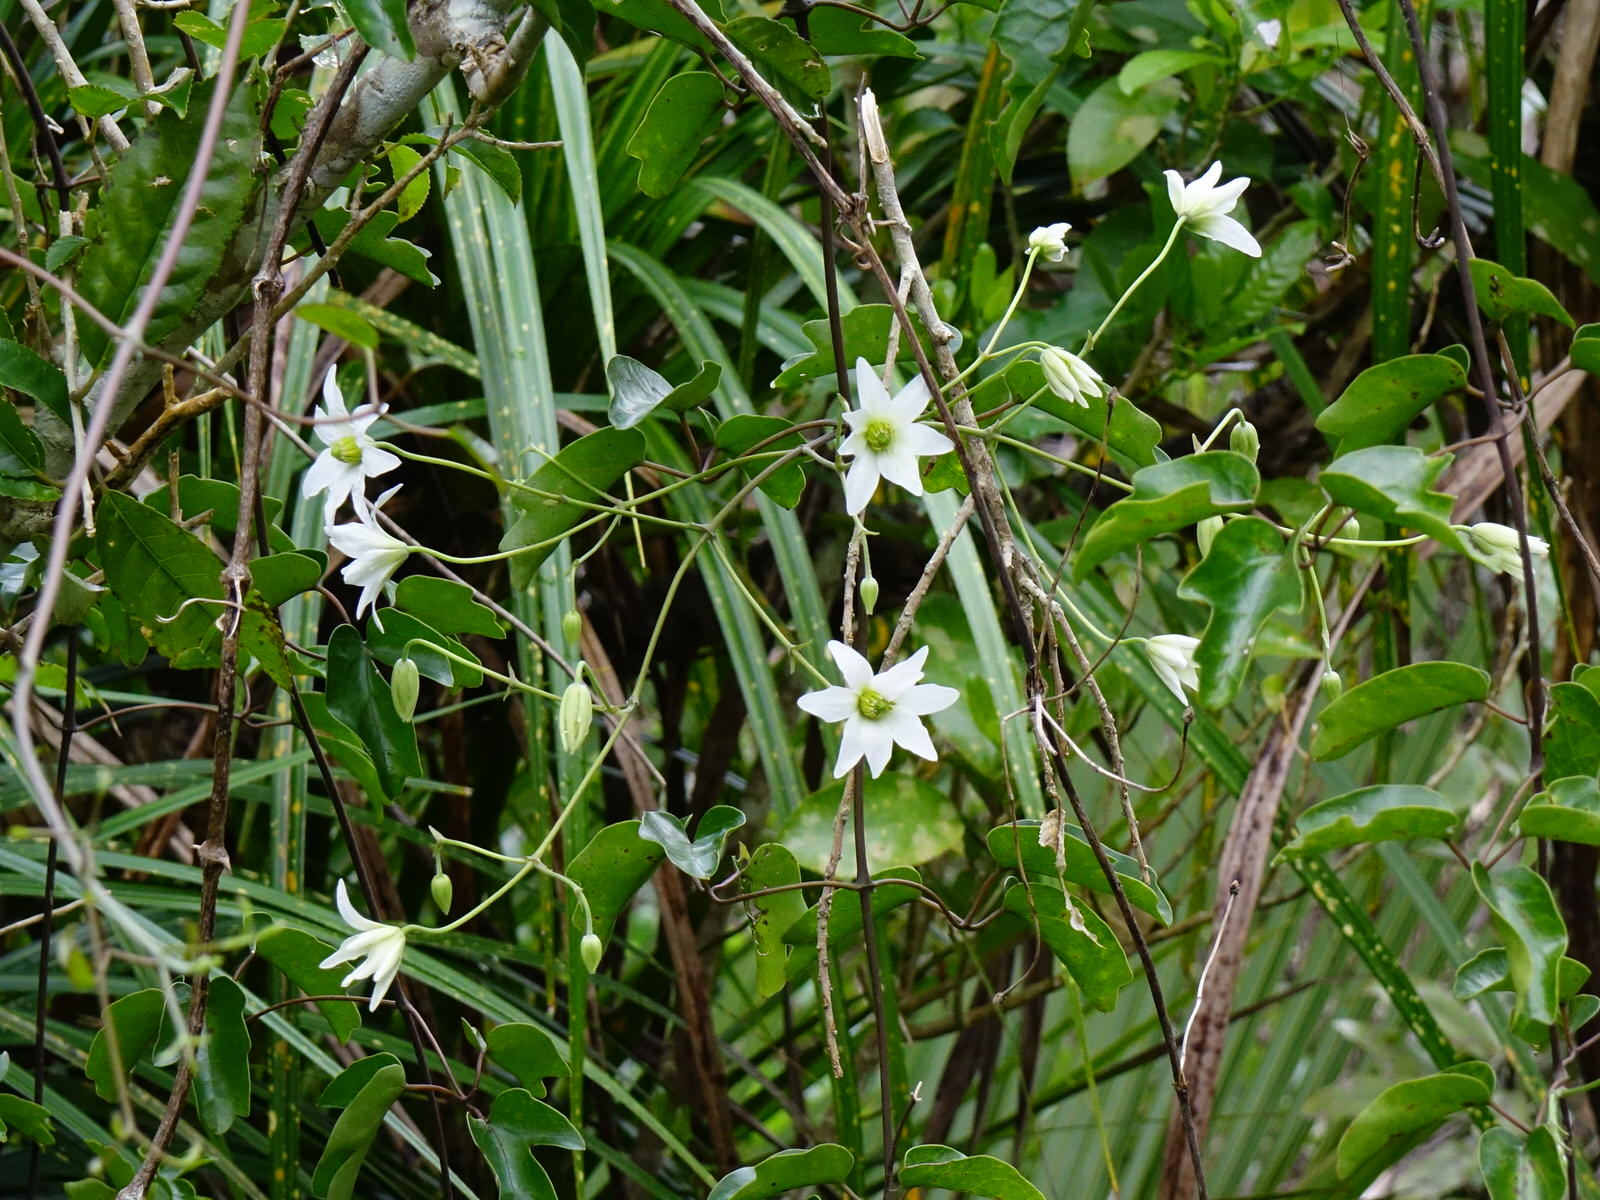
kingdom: Plantae
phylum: Tracheophyta
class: Magnoliopsida
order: Ranunculales
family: Ranunculaceae
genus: Clematis
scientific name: Clematis paniculata
